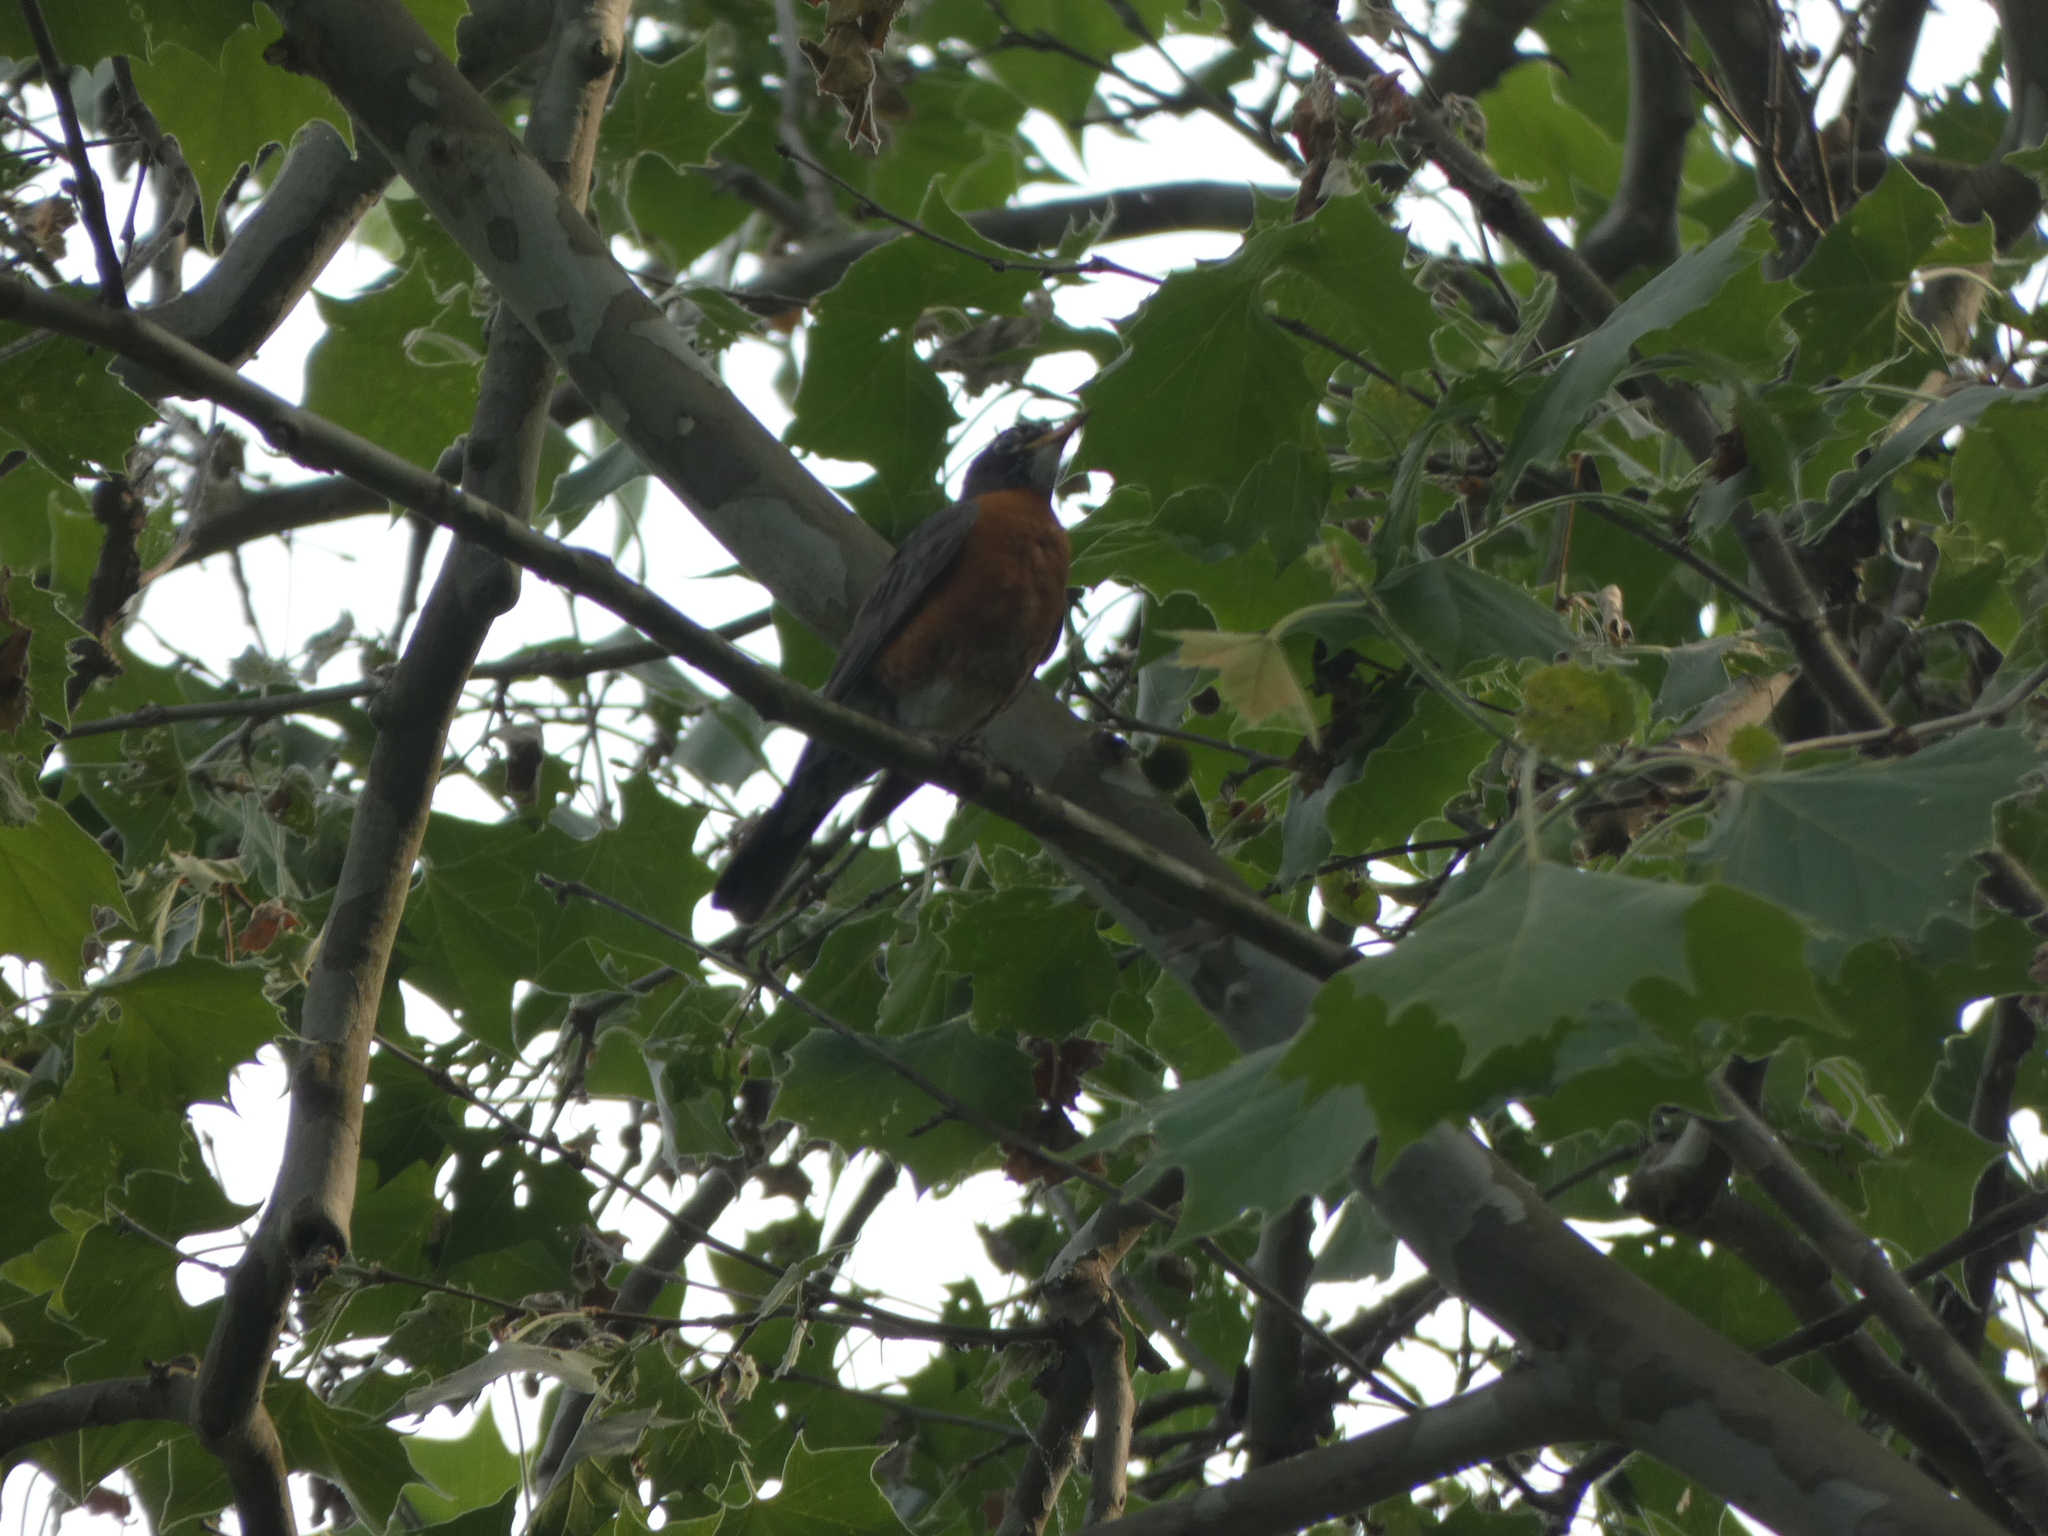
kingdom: Animalia
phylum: Chordata
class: Aves
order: Passeriformes
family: Turdidae
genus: Turdus
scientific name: Turdus migratorius
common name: American robin
